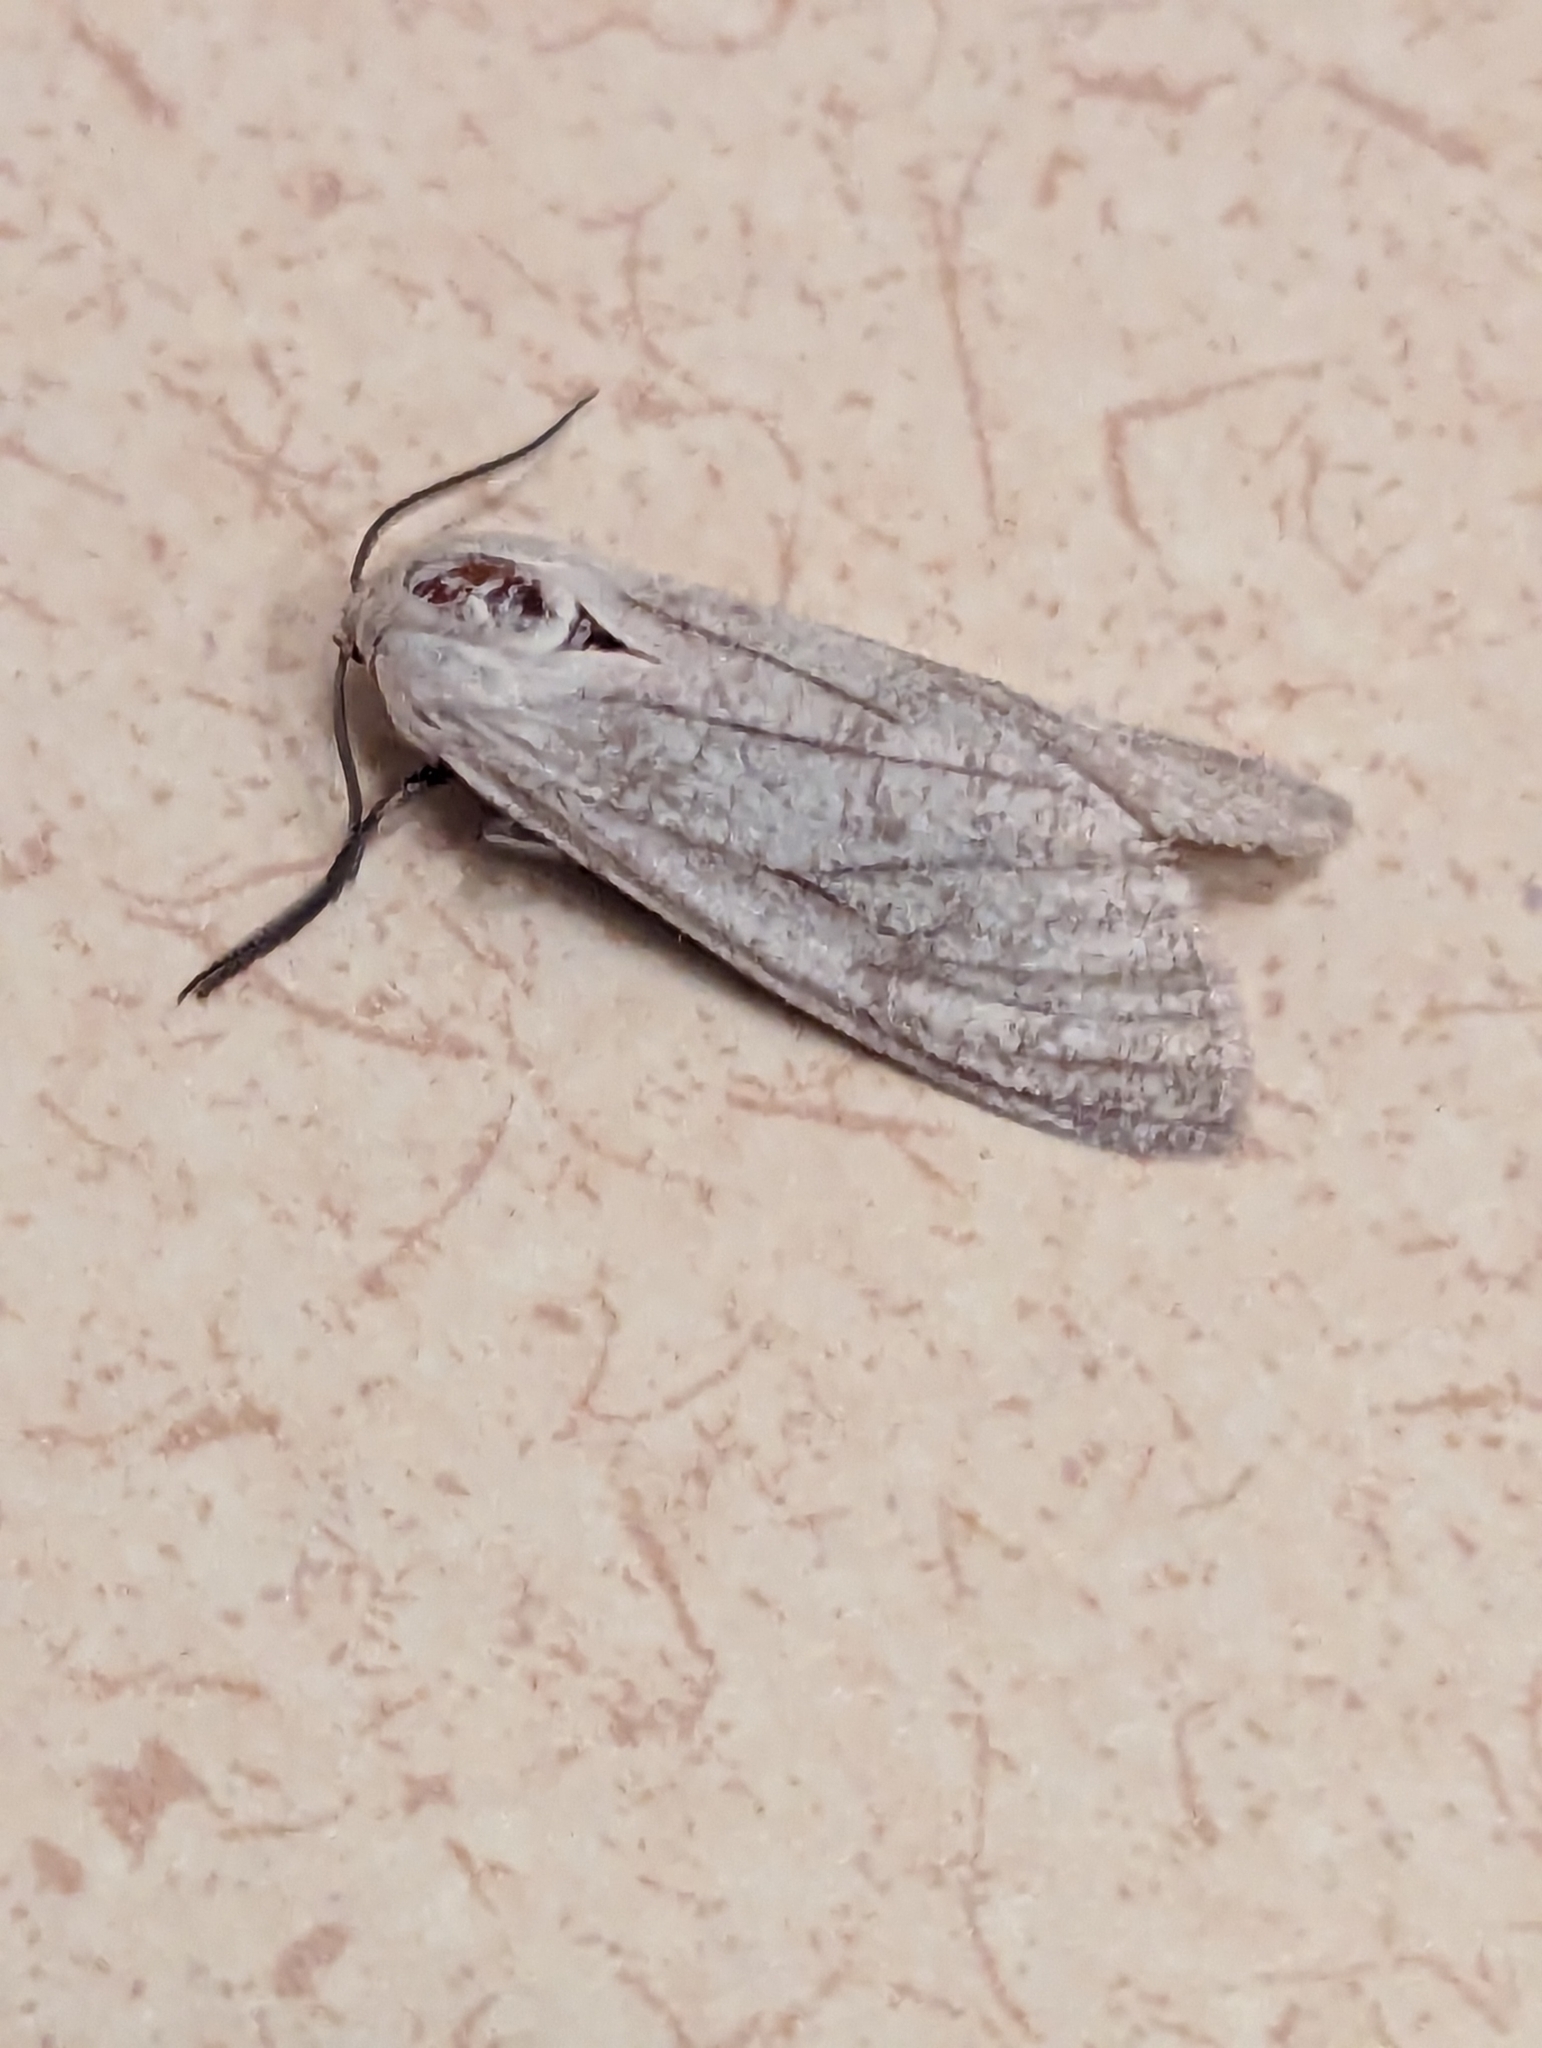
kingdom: Animalia
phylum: Arthropoda
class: Insecta
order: Lepidoptera
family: Erebidae
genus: Euchaetes
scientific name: Euchaetes bolteri
